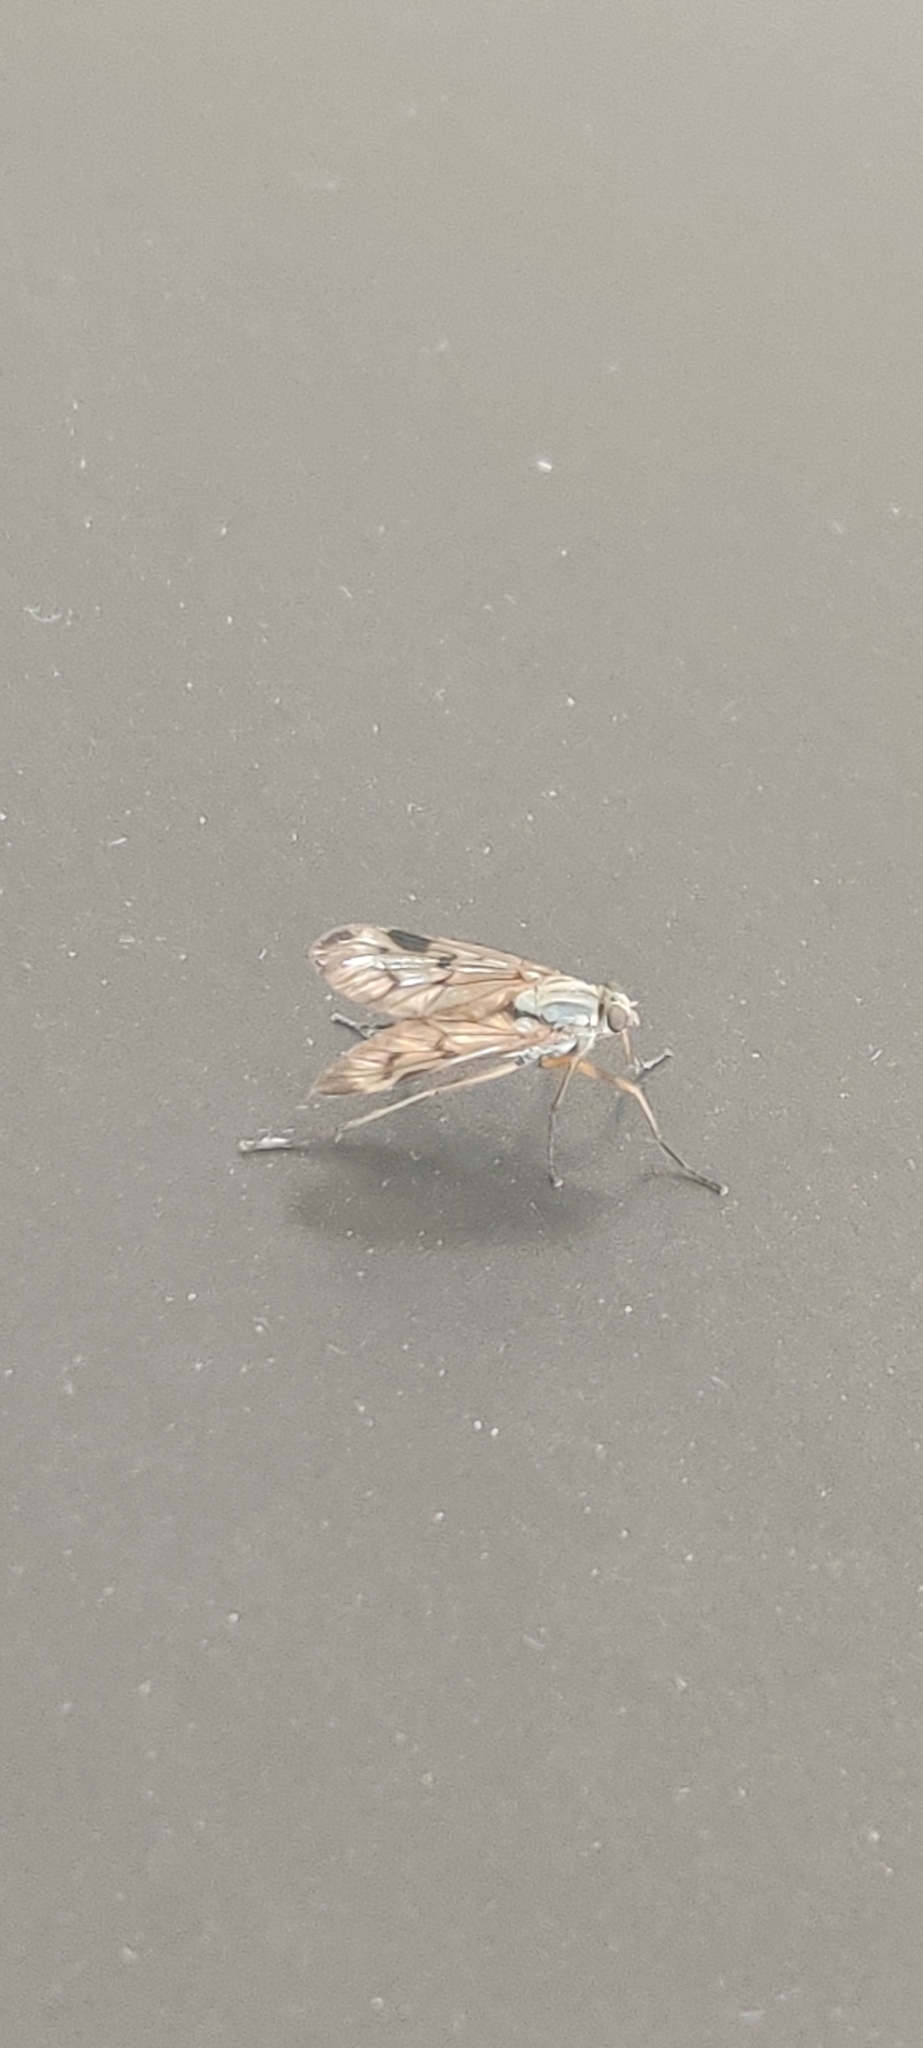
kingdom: Animalia
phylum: Arthropoda
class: Insecta
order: Diptera
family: Rhagionidae
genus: Rhagio
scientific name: Rhagio scolopacea
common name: Downlooker snipefly
